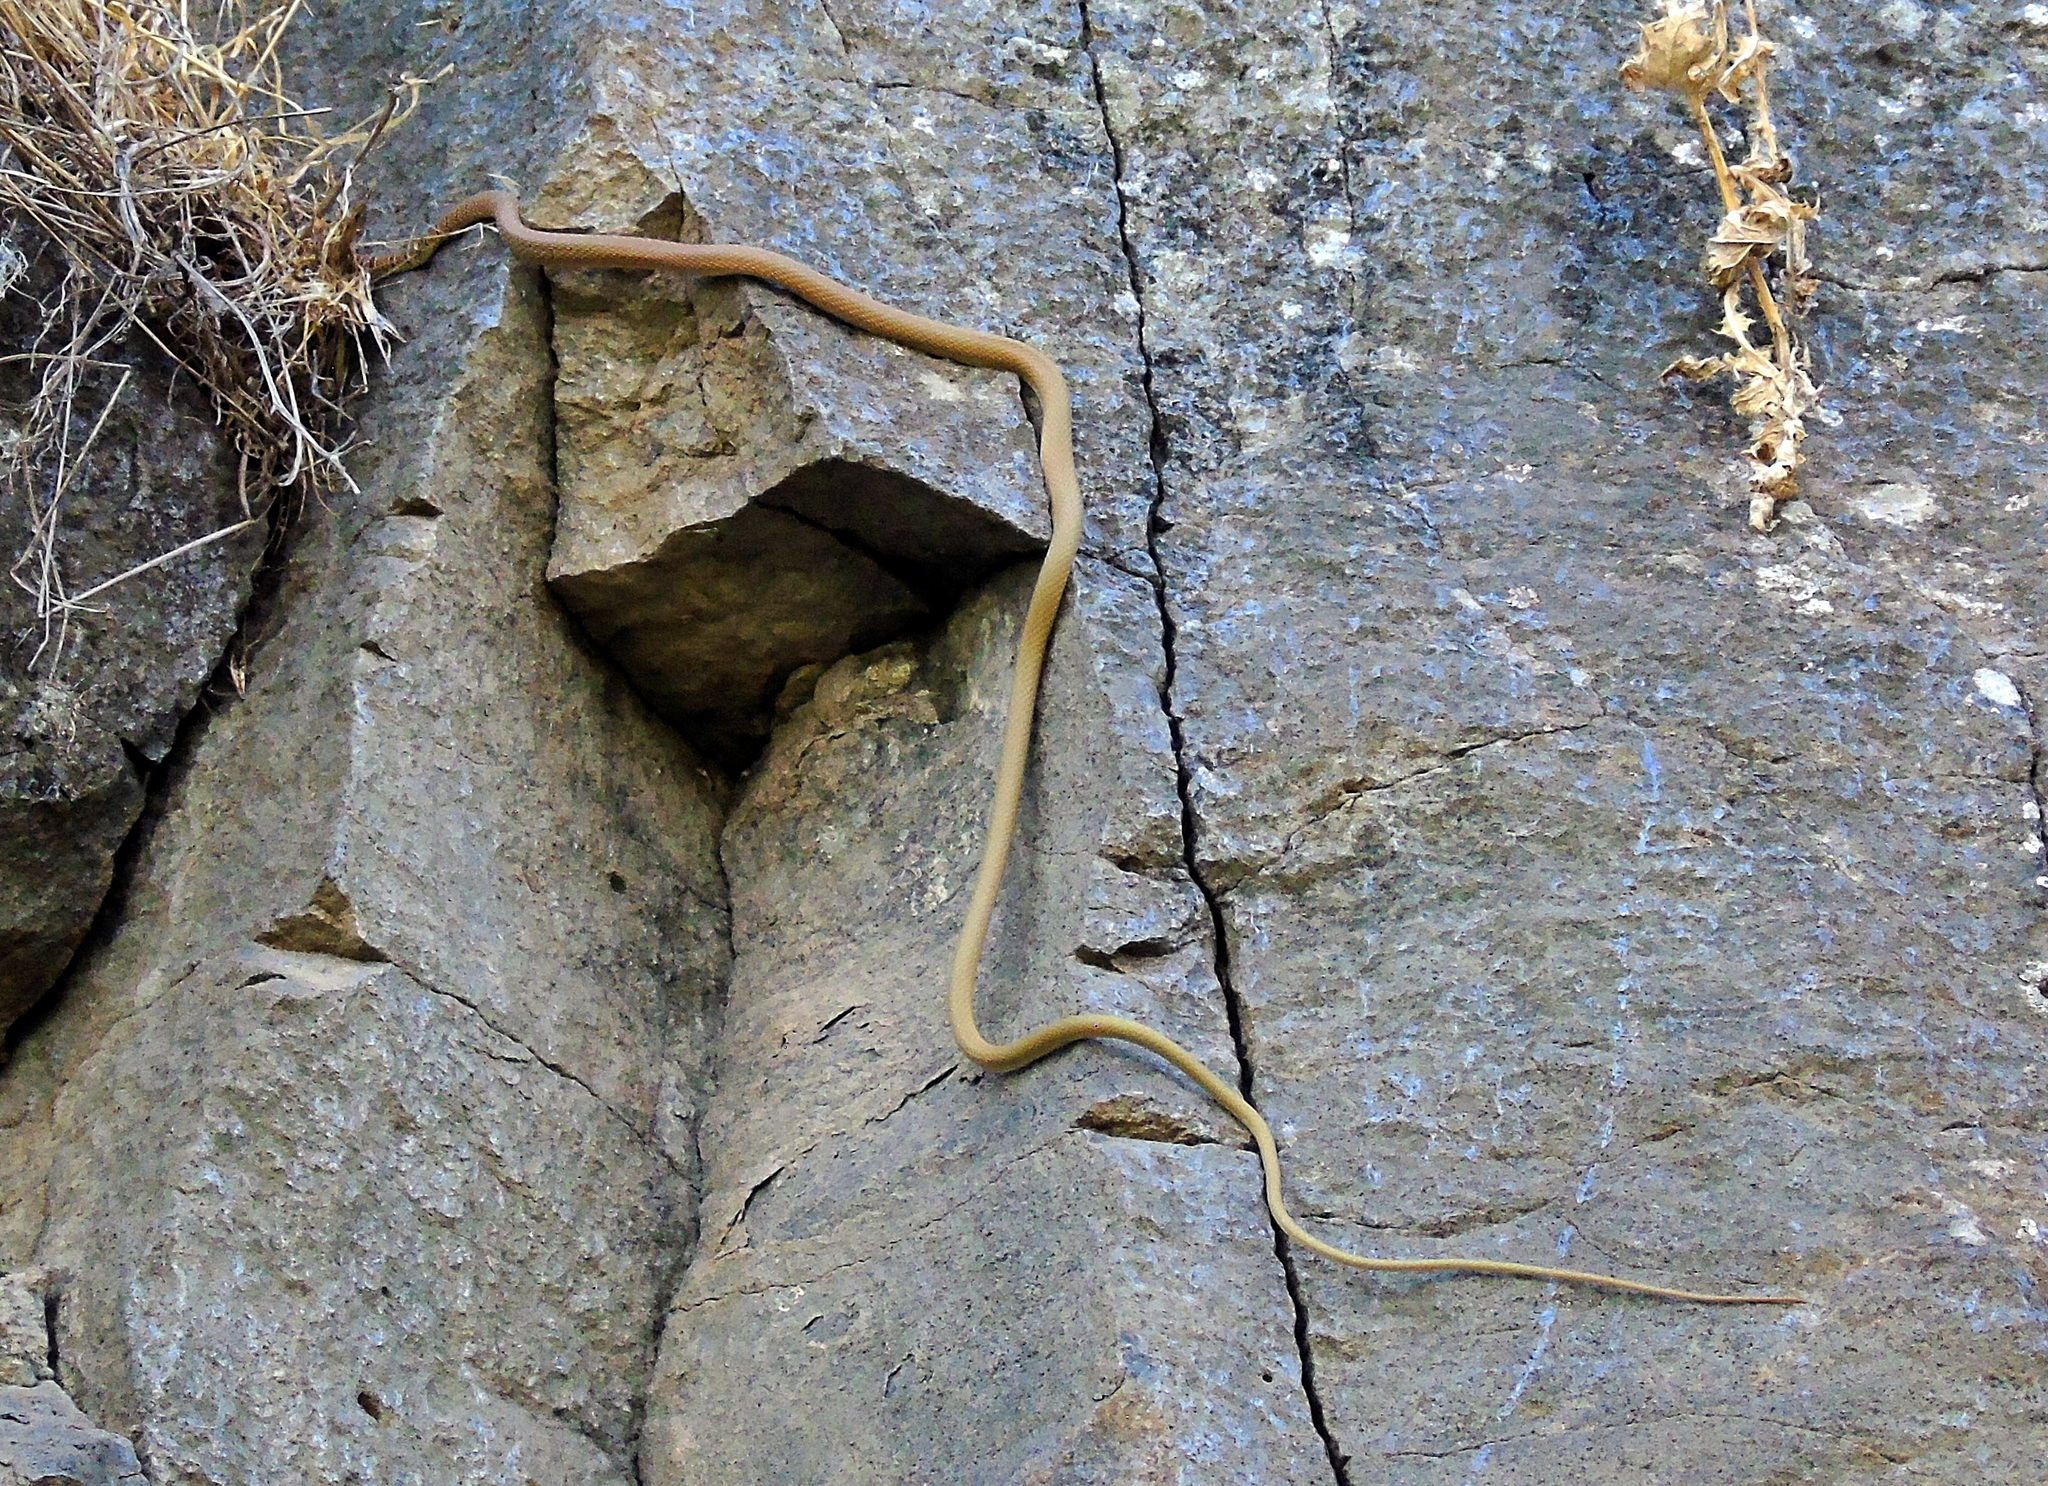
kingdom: Animalia
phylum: Chordata
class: Squamata
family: Colubridae
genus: Platyceps
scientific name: Platyceps najadum
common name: Dahl's whip snake
